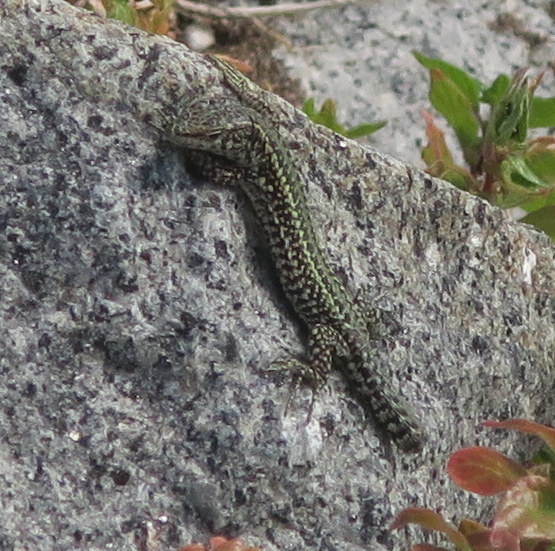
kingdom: Animalia
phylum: Chordata
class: Squamata
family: Lacertidae
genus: Podarcis
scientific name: Podarcis bocagei
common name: Bocage's wall lizard
